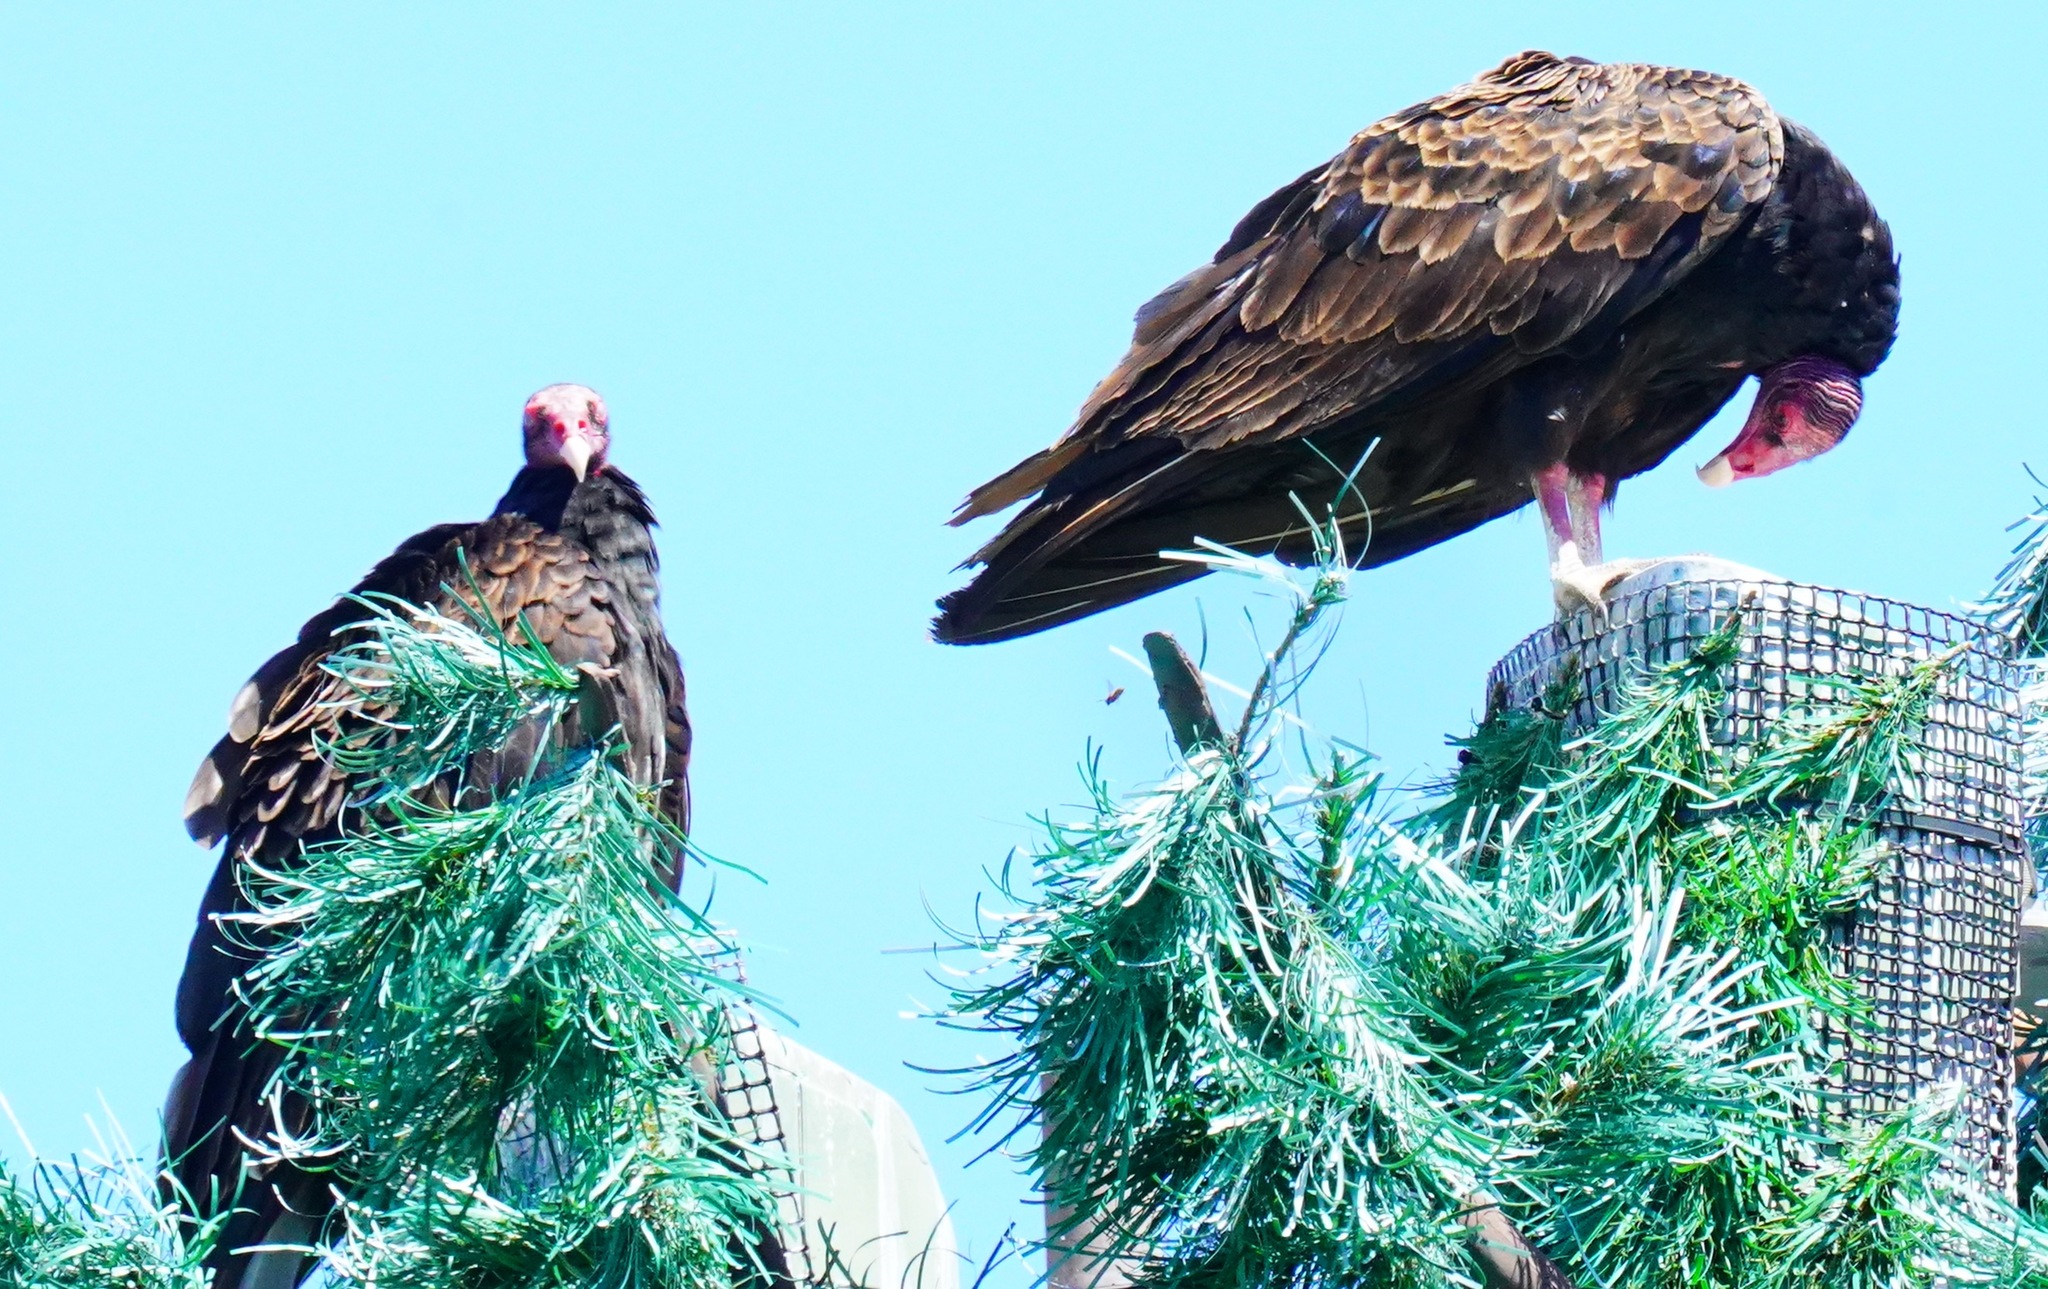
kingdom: Animalia
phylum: Chordata
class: Aves
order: Accipitriformes
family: Cathartidae
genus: Cathartes
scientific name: Cathartes aura
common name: Turkey vulture
